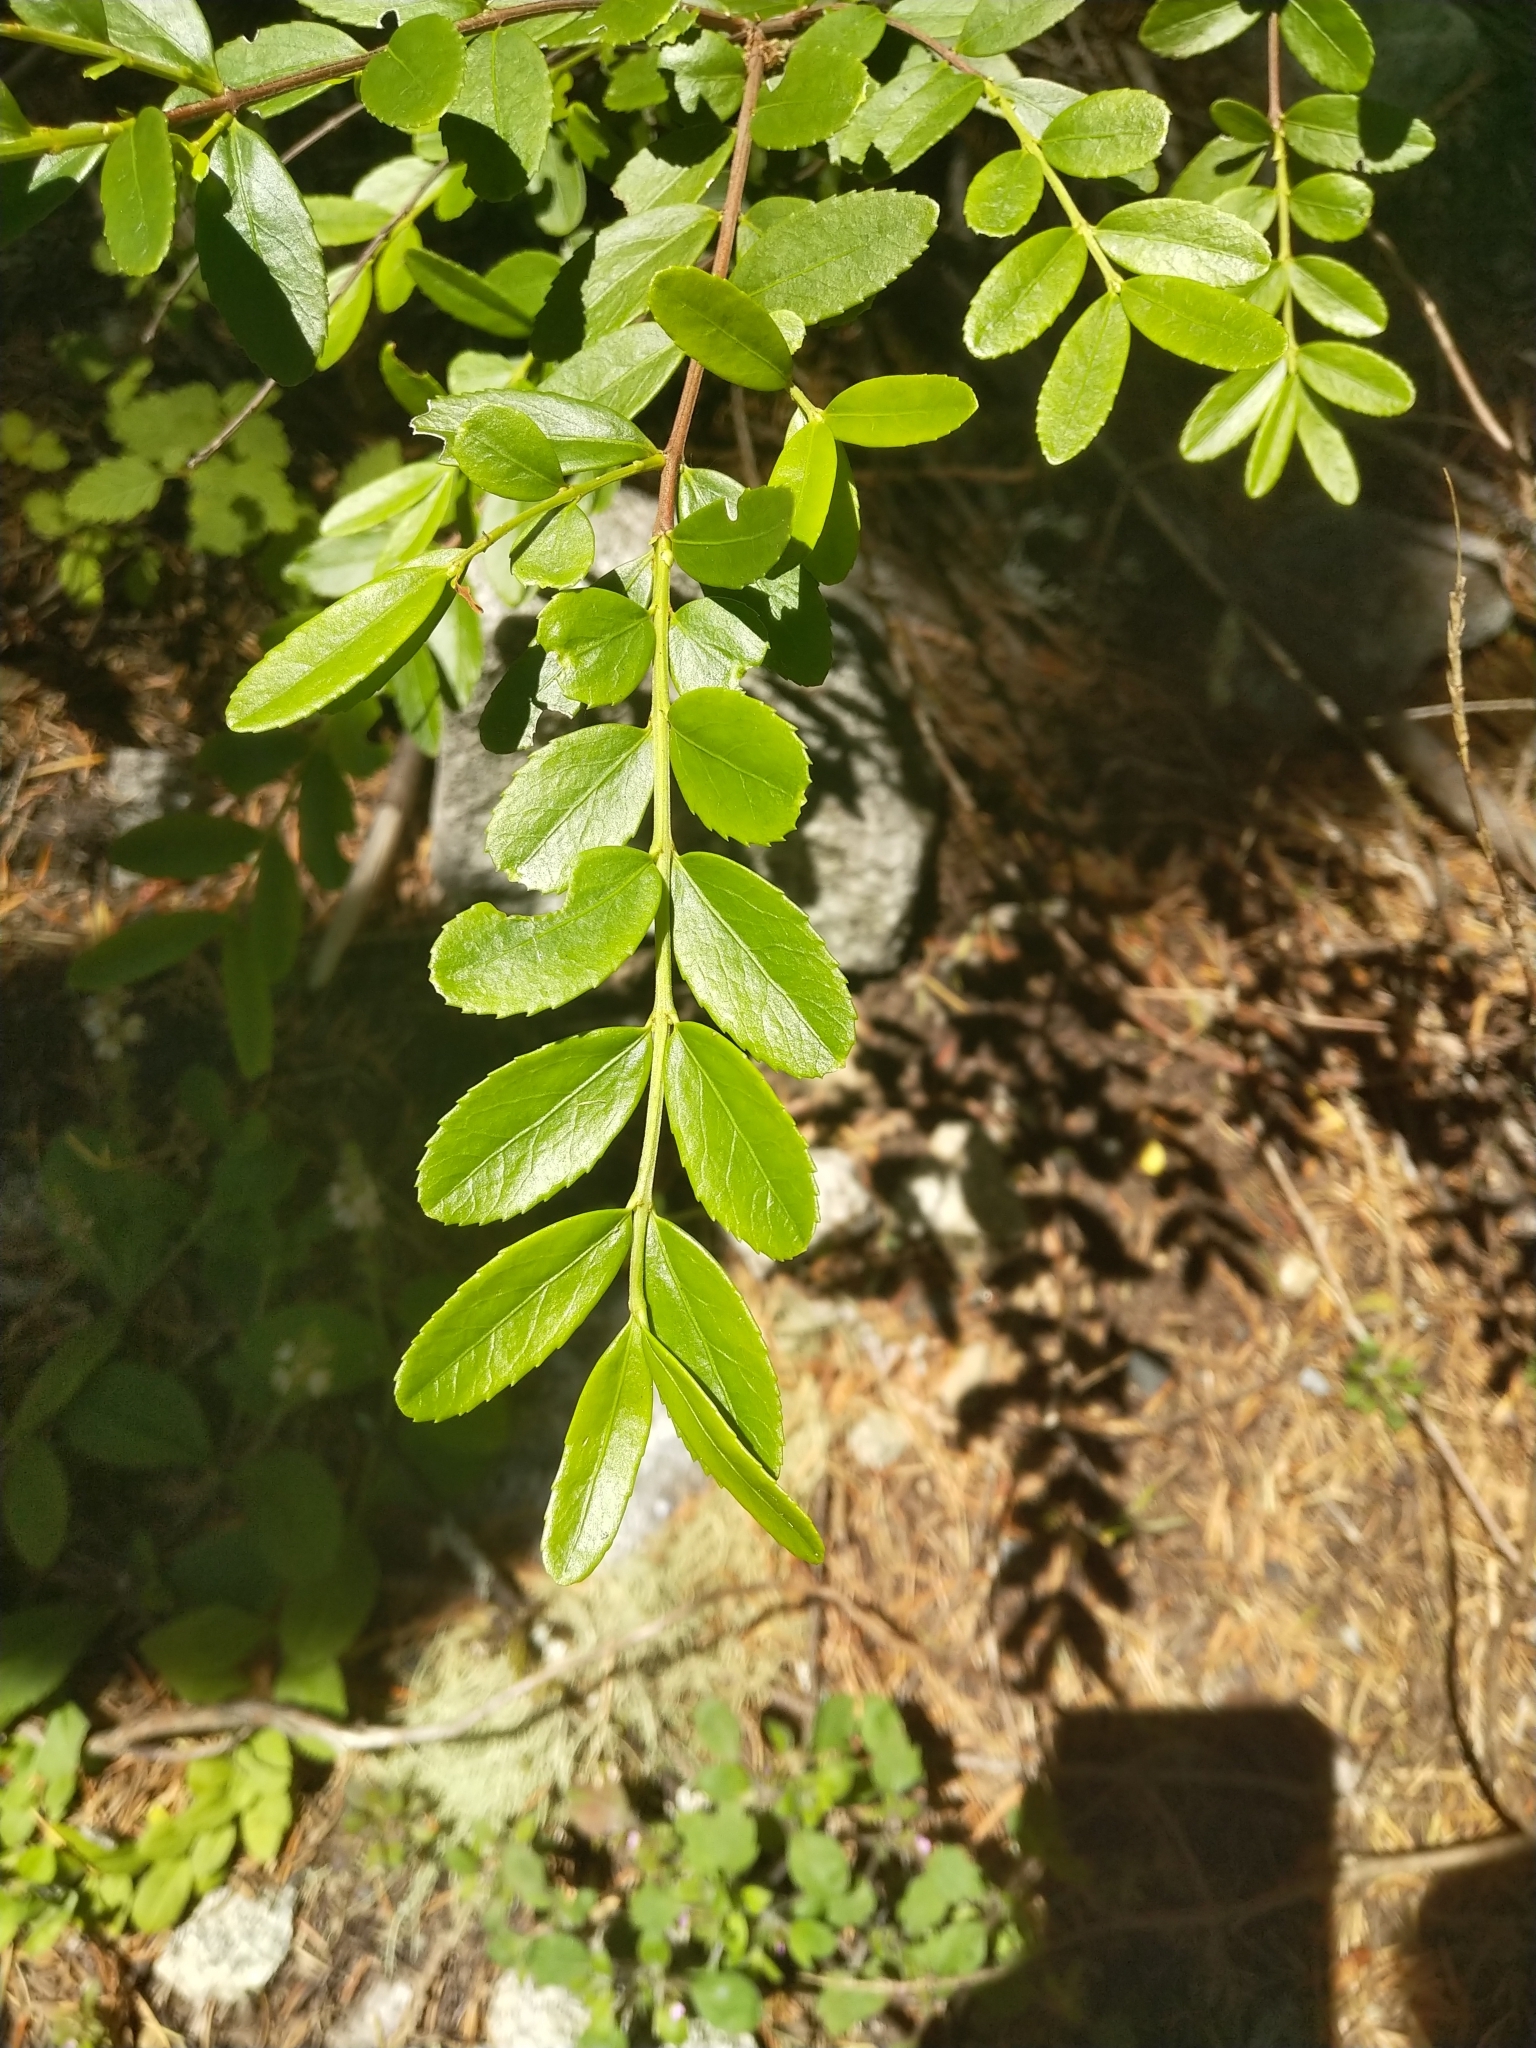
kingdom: Plantae
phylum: Tracheophyta
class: Magnoliopsida
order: Celastrales
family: Celastraceae
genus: Paxistima
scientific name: Paxistima myrsinites
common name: Mountain-lover
